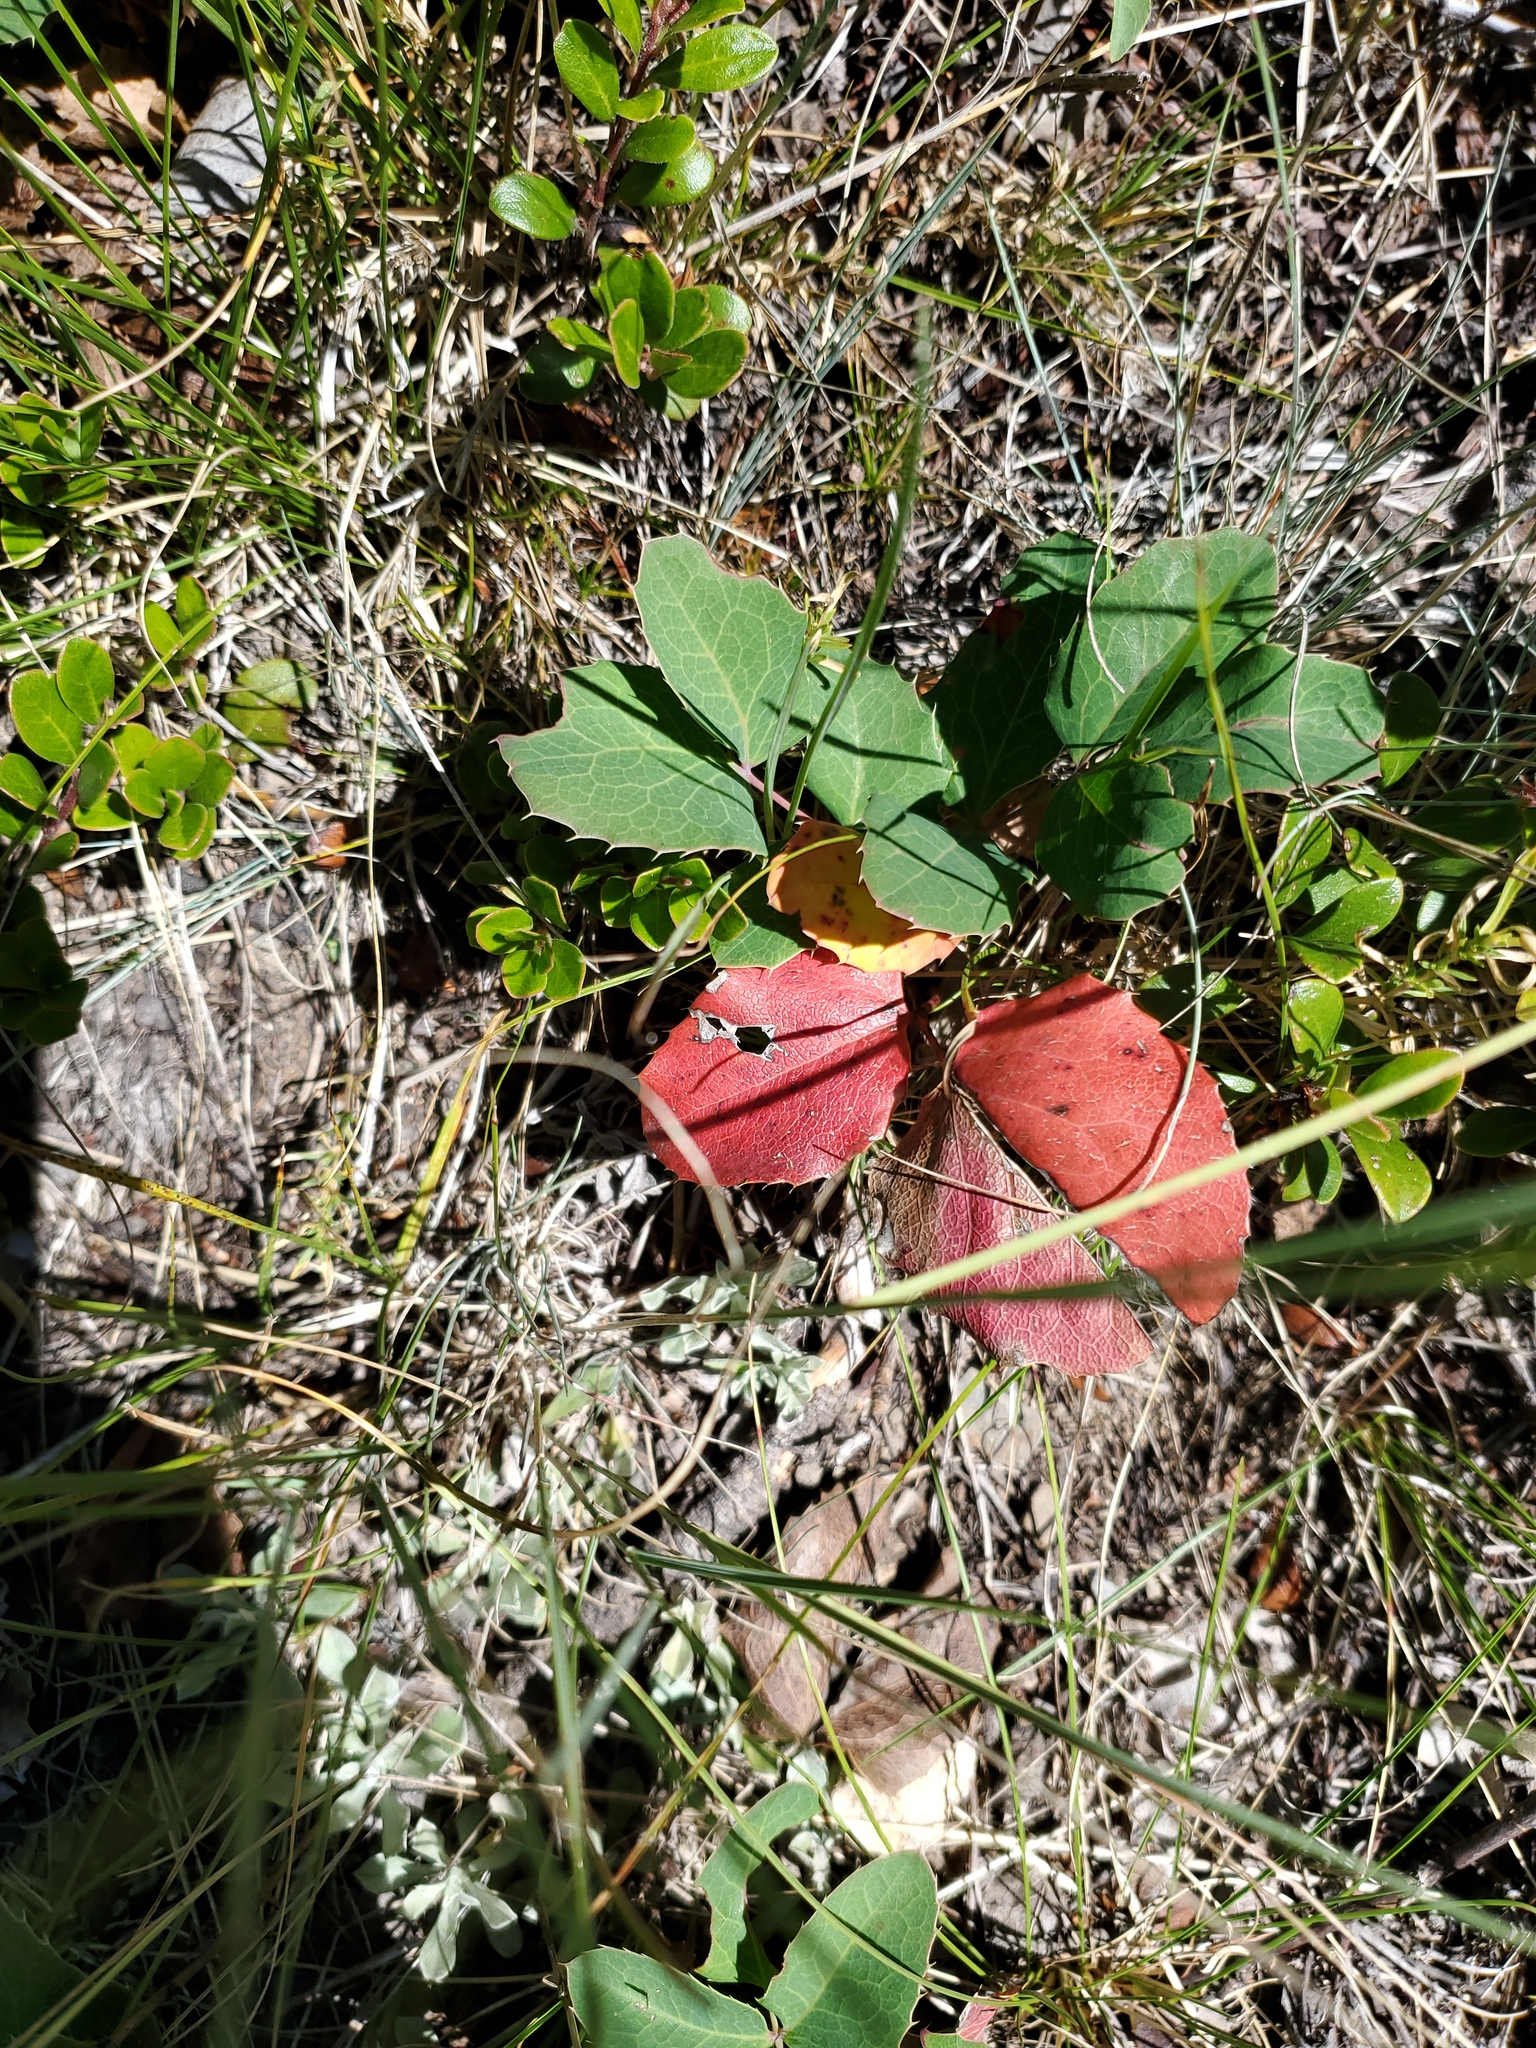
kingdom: Plantae
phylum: Tracheophyta
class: Magnoliopsida
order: Ranunculales
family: Berberidaceae
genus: Mahonia
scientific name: Mahonia repens
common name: Creeping oregon-grape
